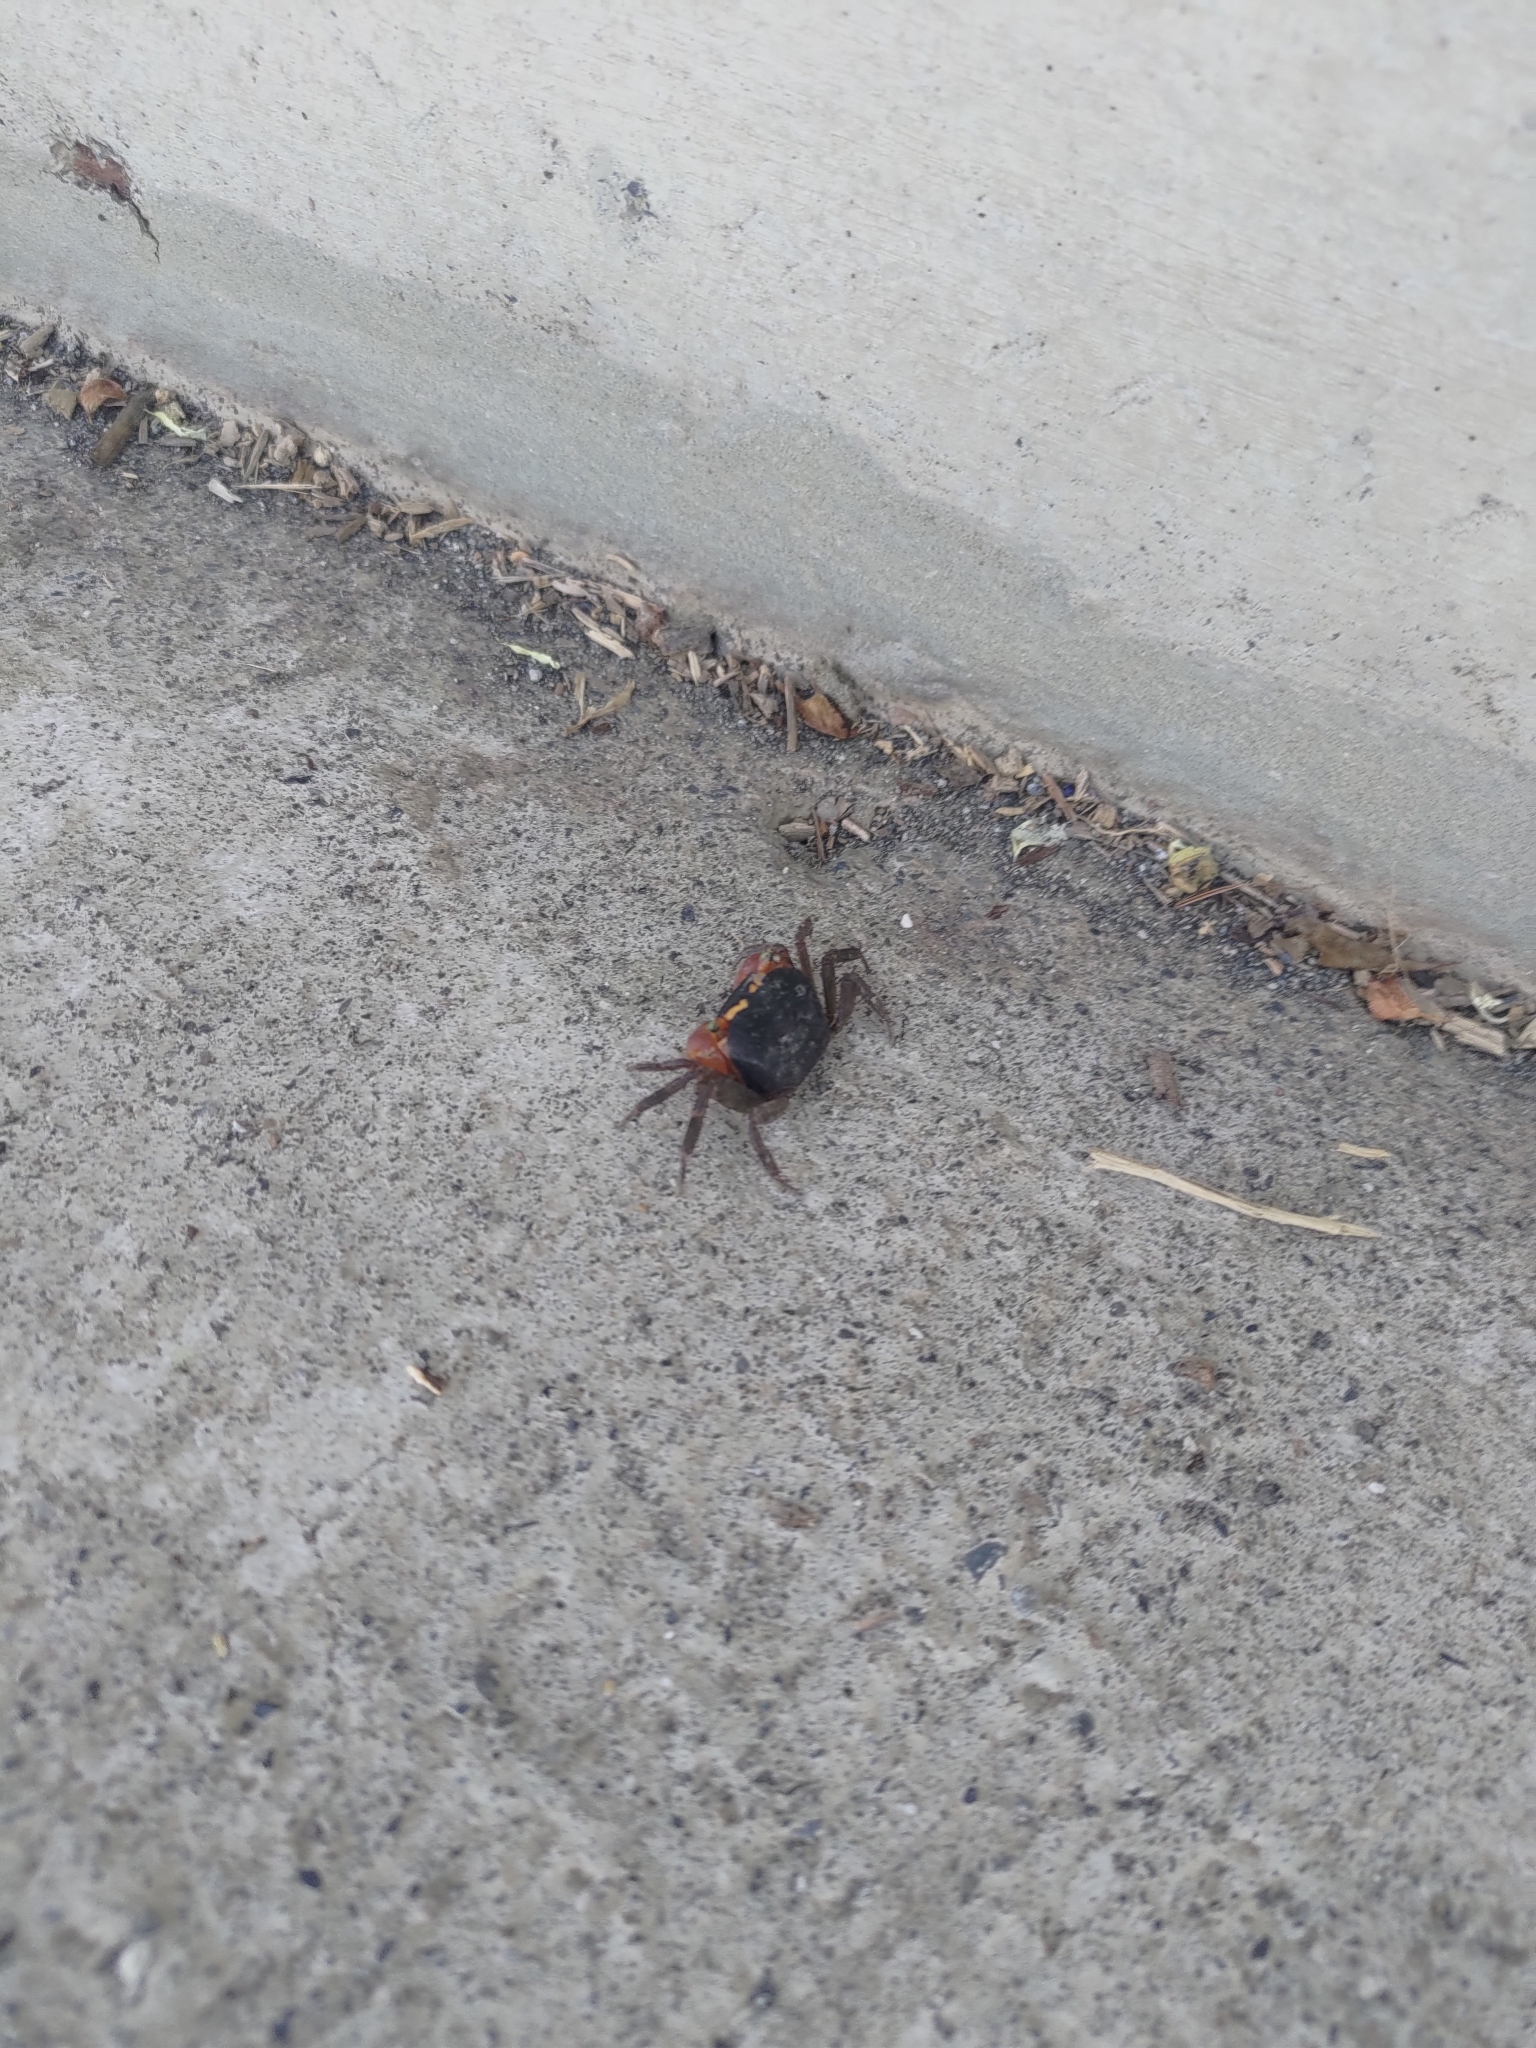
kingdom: Animalia
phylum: Arthropoda
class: Malacostraca
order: Decapoda
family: Sesarmidae
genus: Metasesarma
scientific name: Metasesarma aubryi
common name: Apple crab
